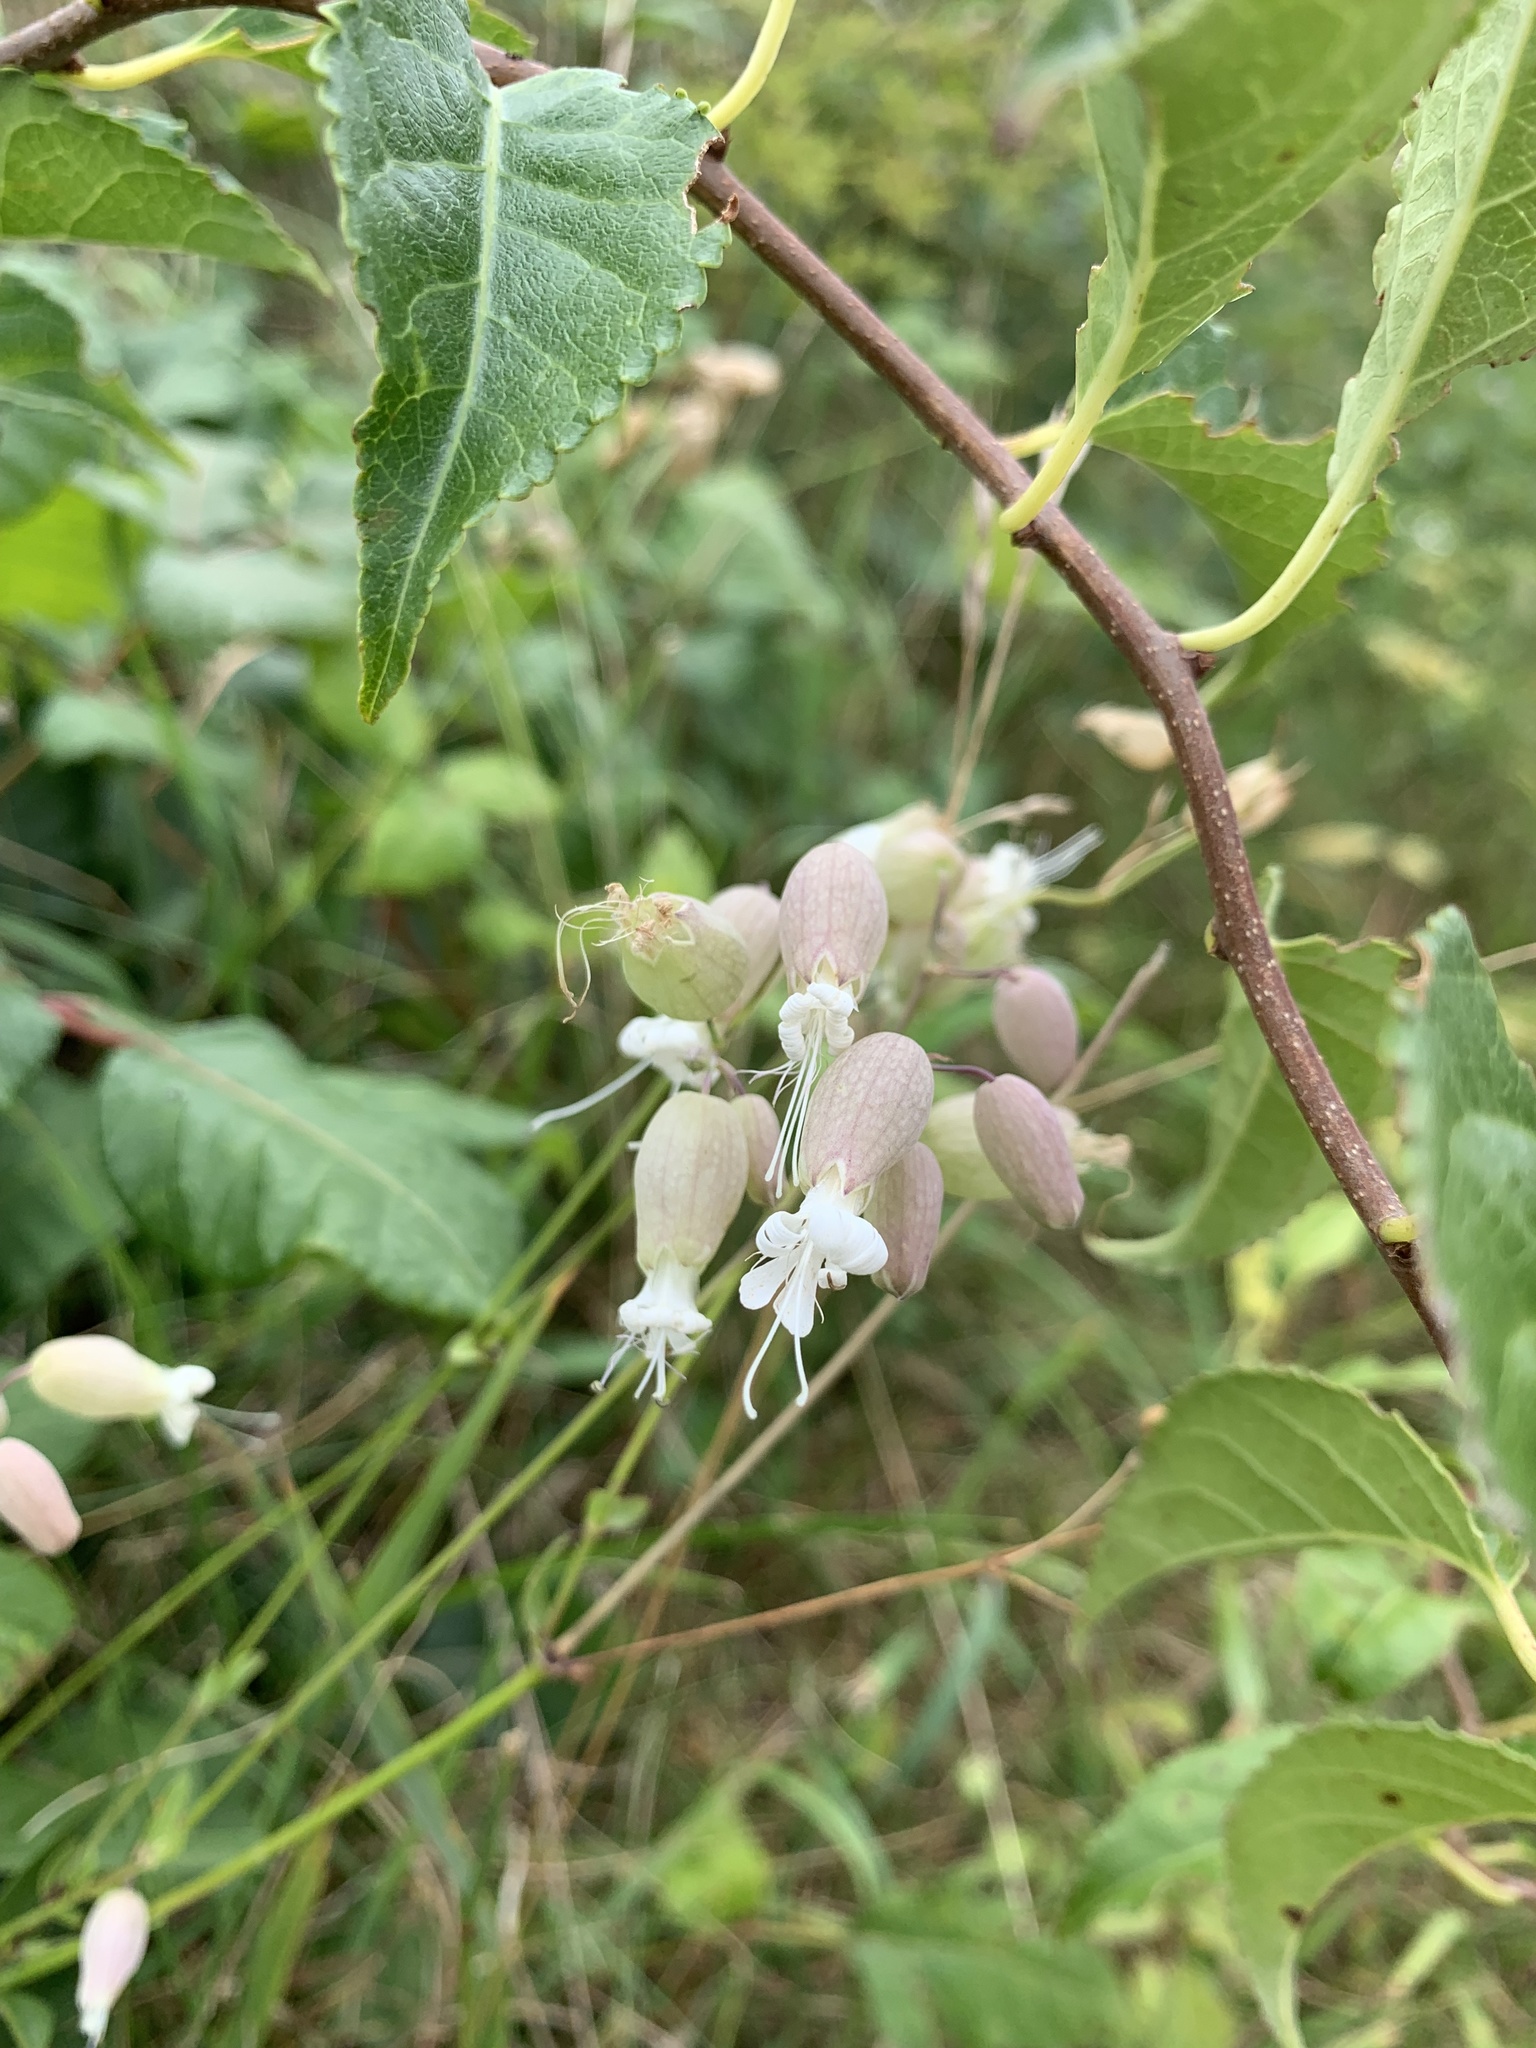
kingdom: Plantae
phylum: Tracheophyta
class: Magnoliopsida
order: Caryophyllales
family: Caryophyllaceae
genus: Silene
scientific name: Silene vulgaris
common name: Bladder campion
